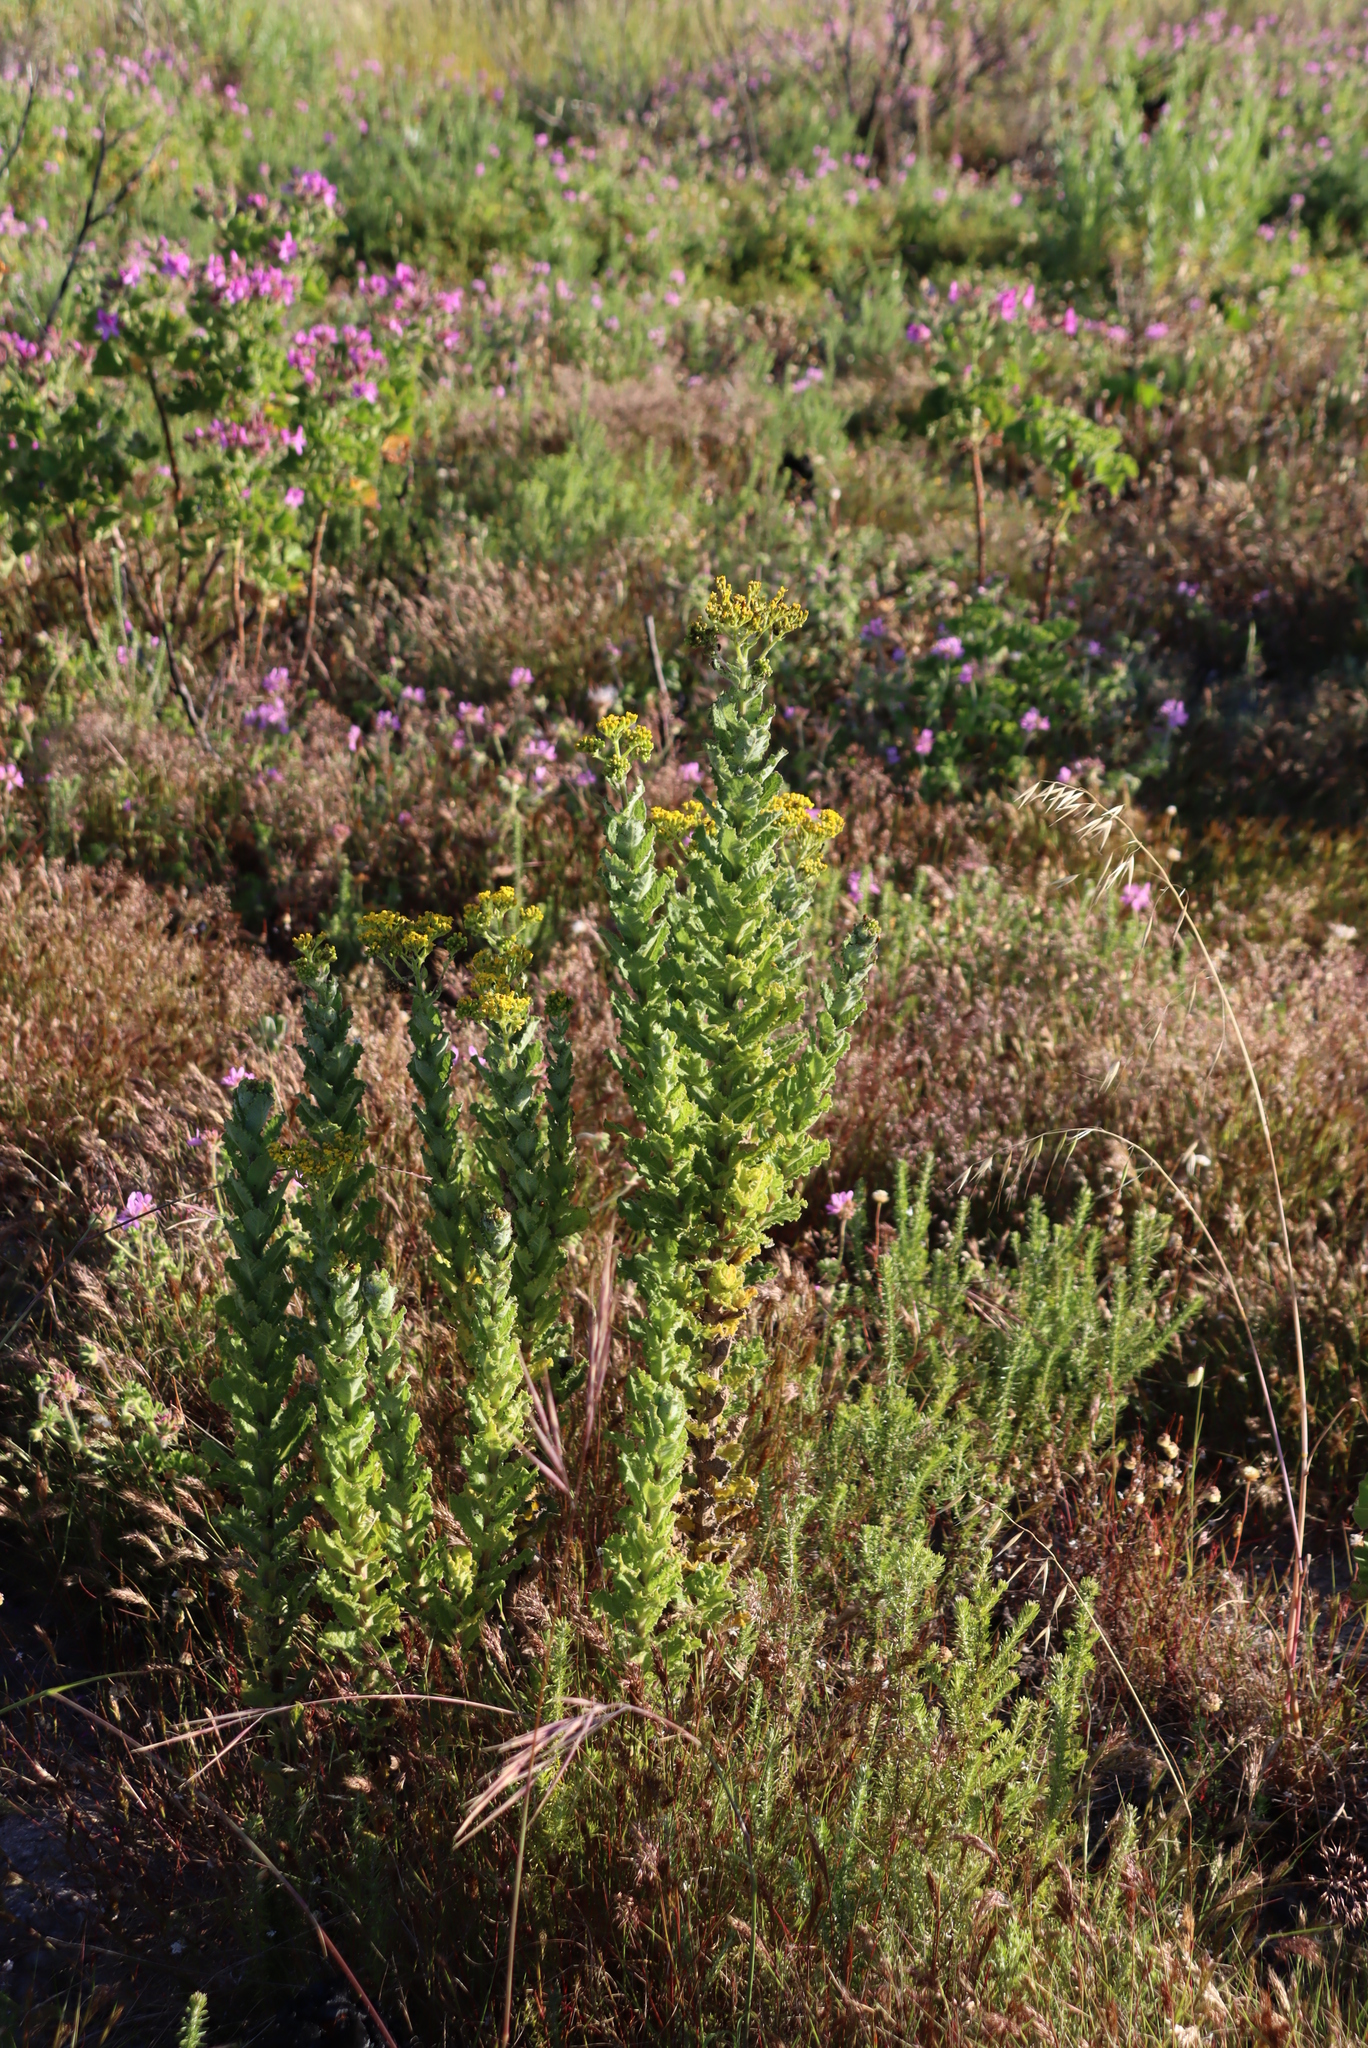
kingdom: Plantae
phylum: Tracheophyta
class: Magnoliopsida
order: Asterales
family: Asteraceae
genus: Senecio
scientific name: Senecio rigidus
